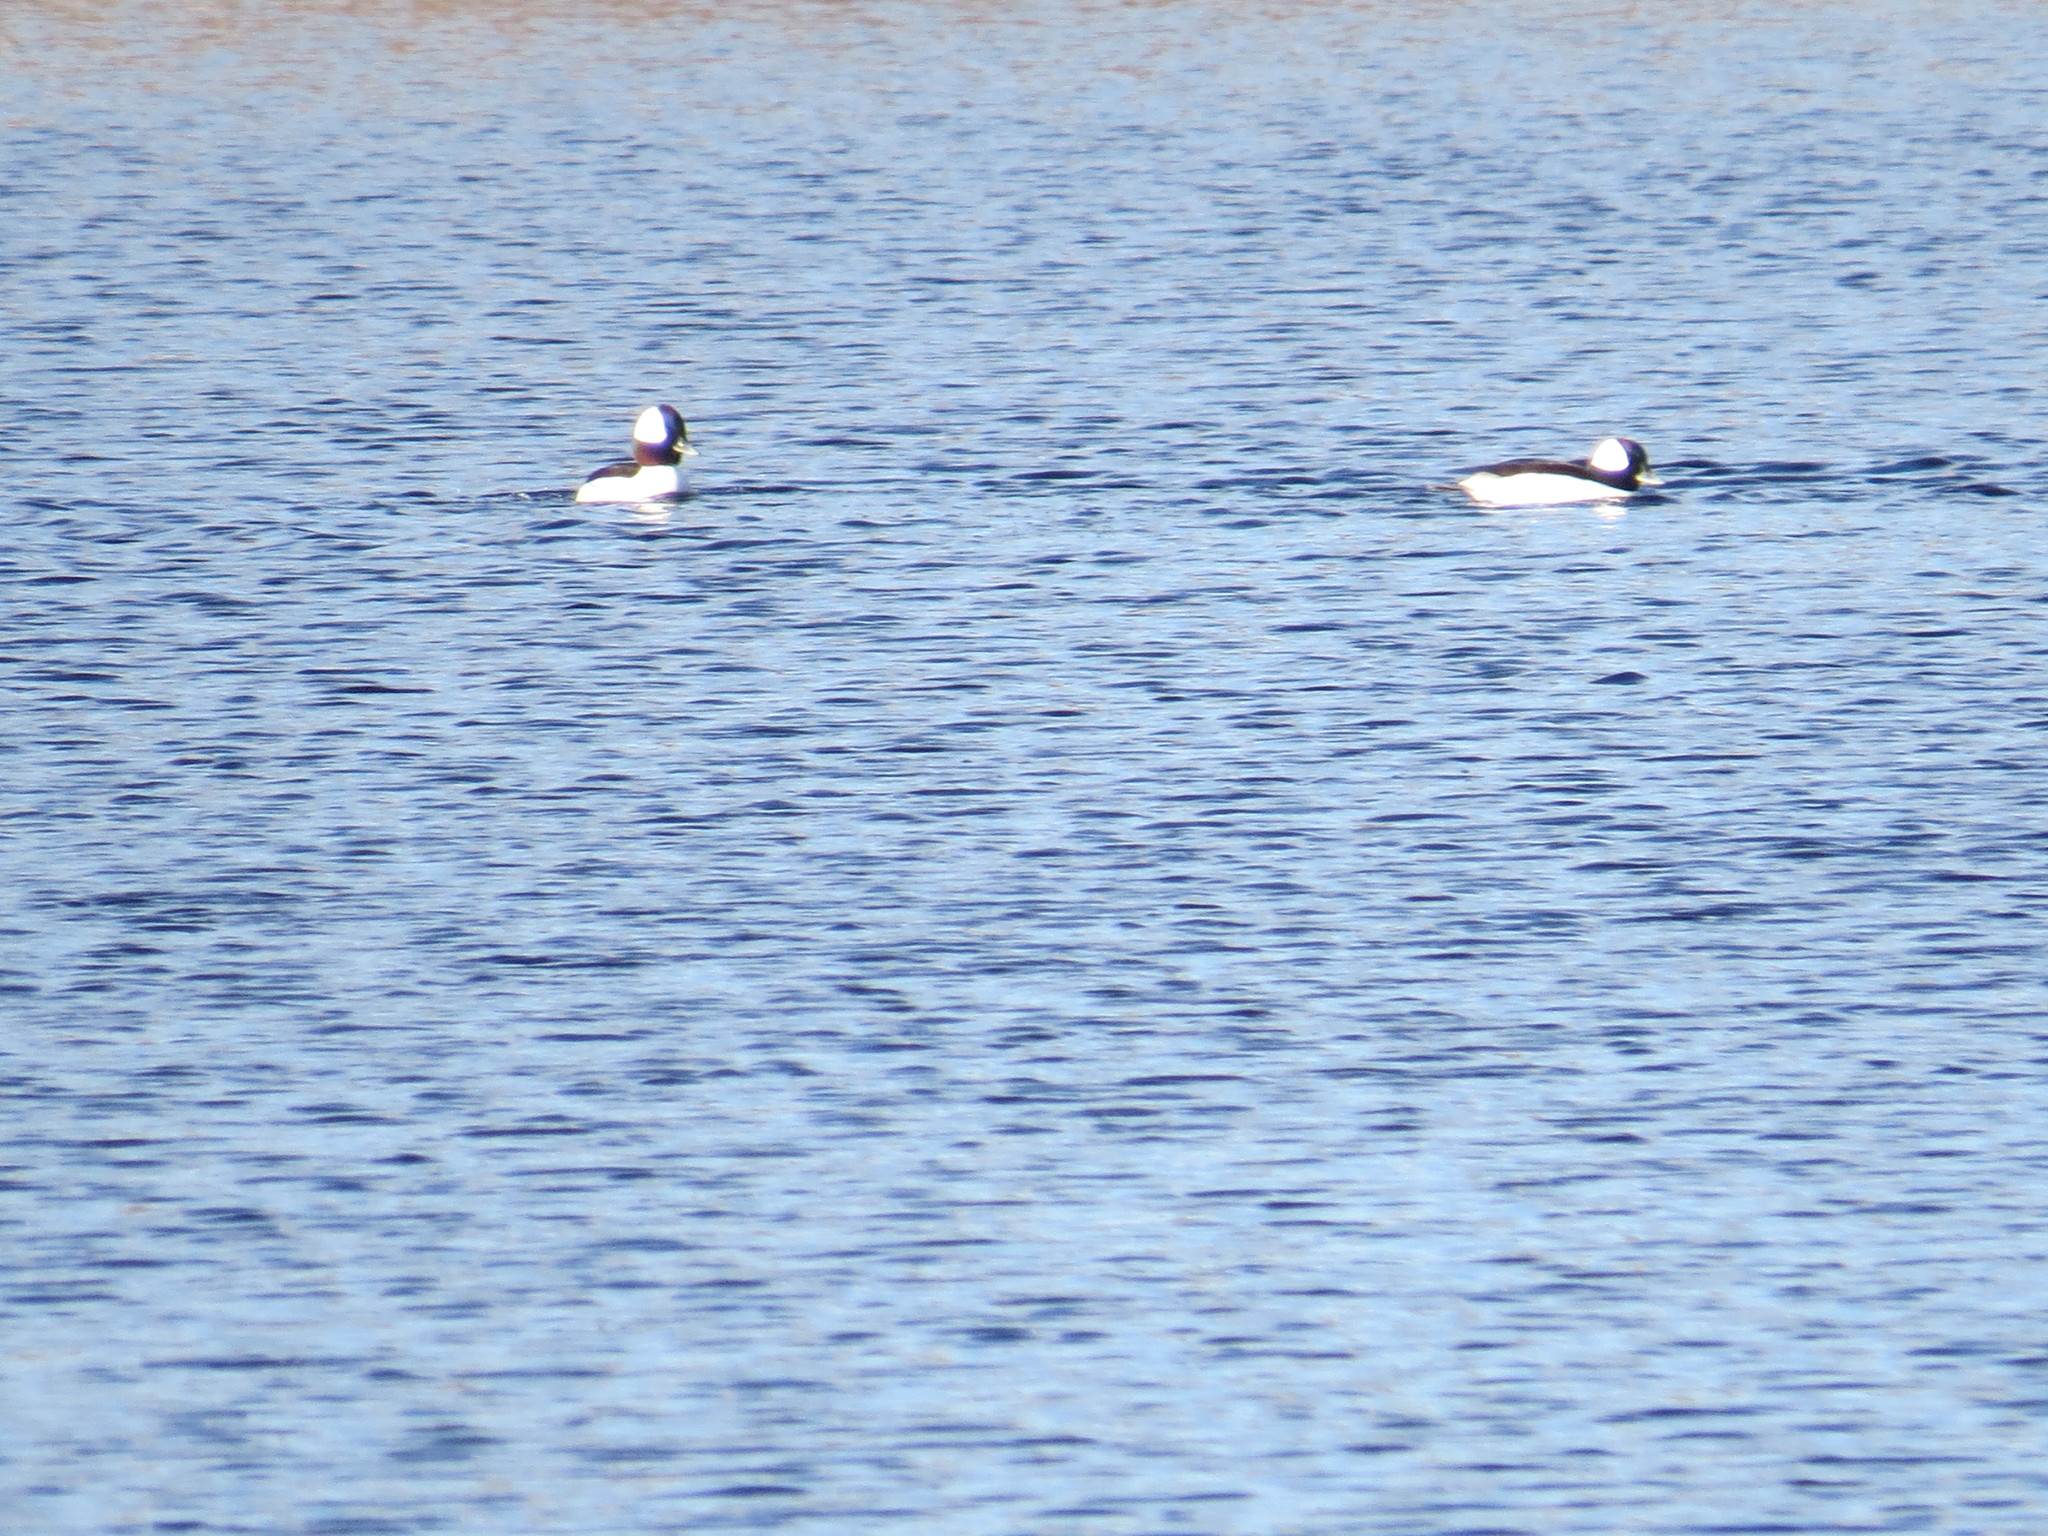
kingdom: Animalia
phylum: Chordata
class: Aves
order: Anseriformes
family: Anatidae
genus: Bucephala
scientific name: Bucephala albeola
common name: Bufflehead
